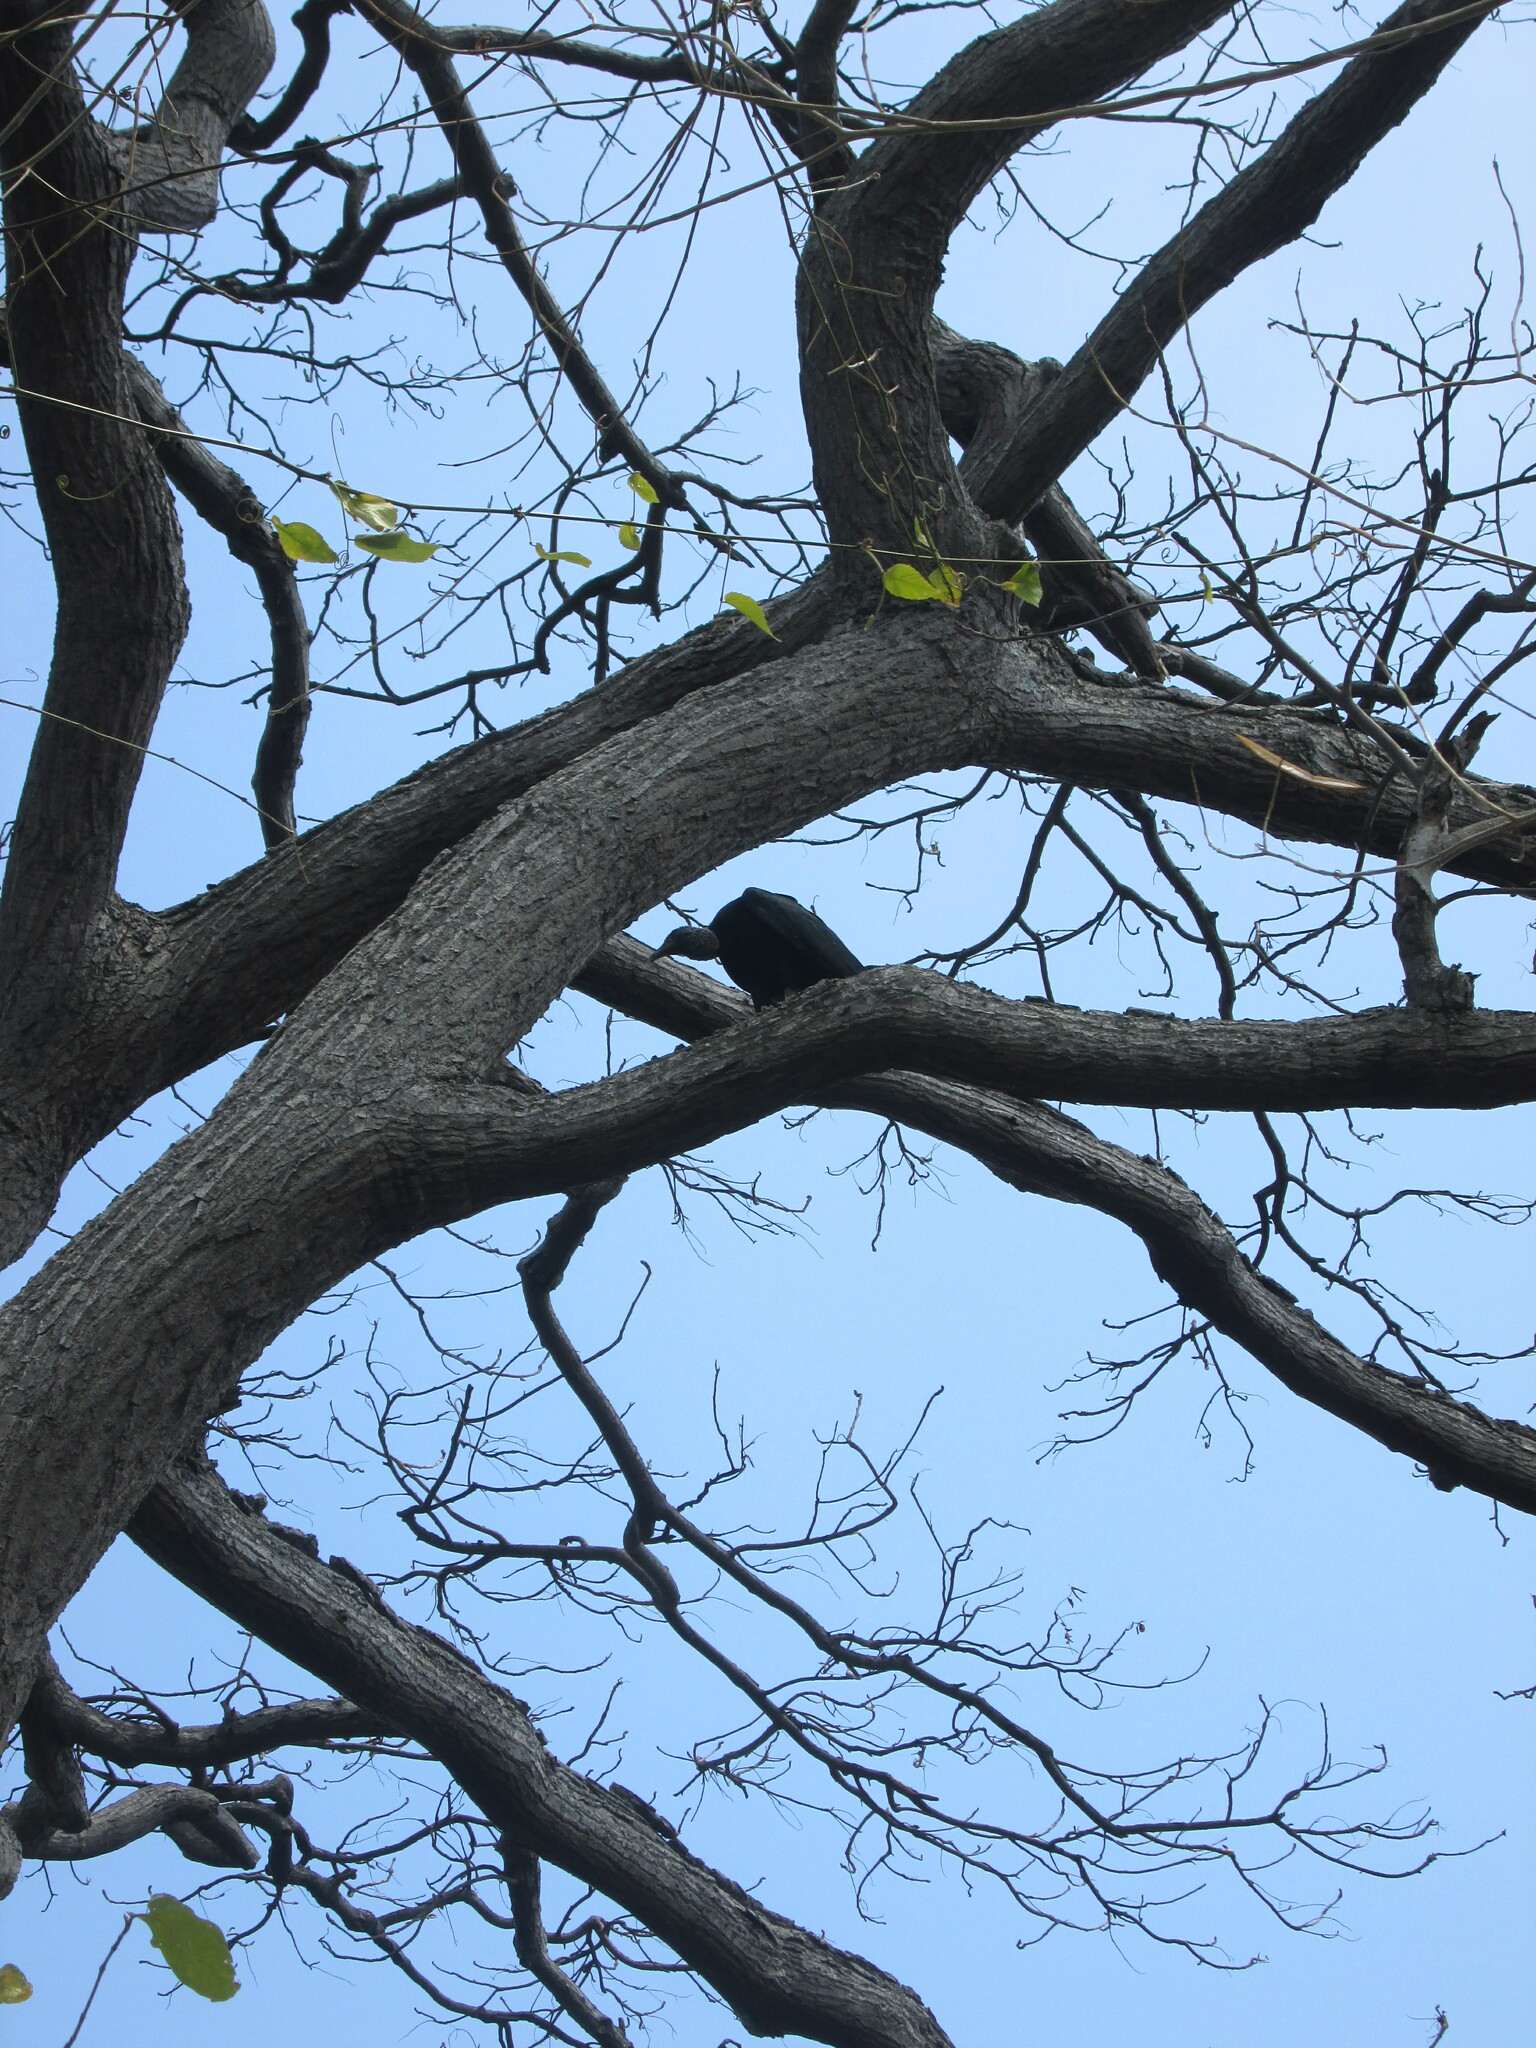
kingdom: Animalia
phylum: Chordata
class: Aves
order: Accipitriformes
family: Cathartidae
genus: Coragyps
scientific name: Coragyps atratus
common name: Black vulture
